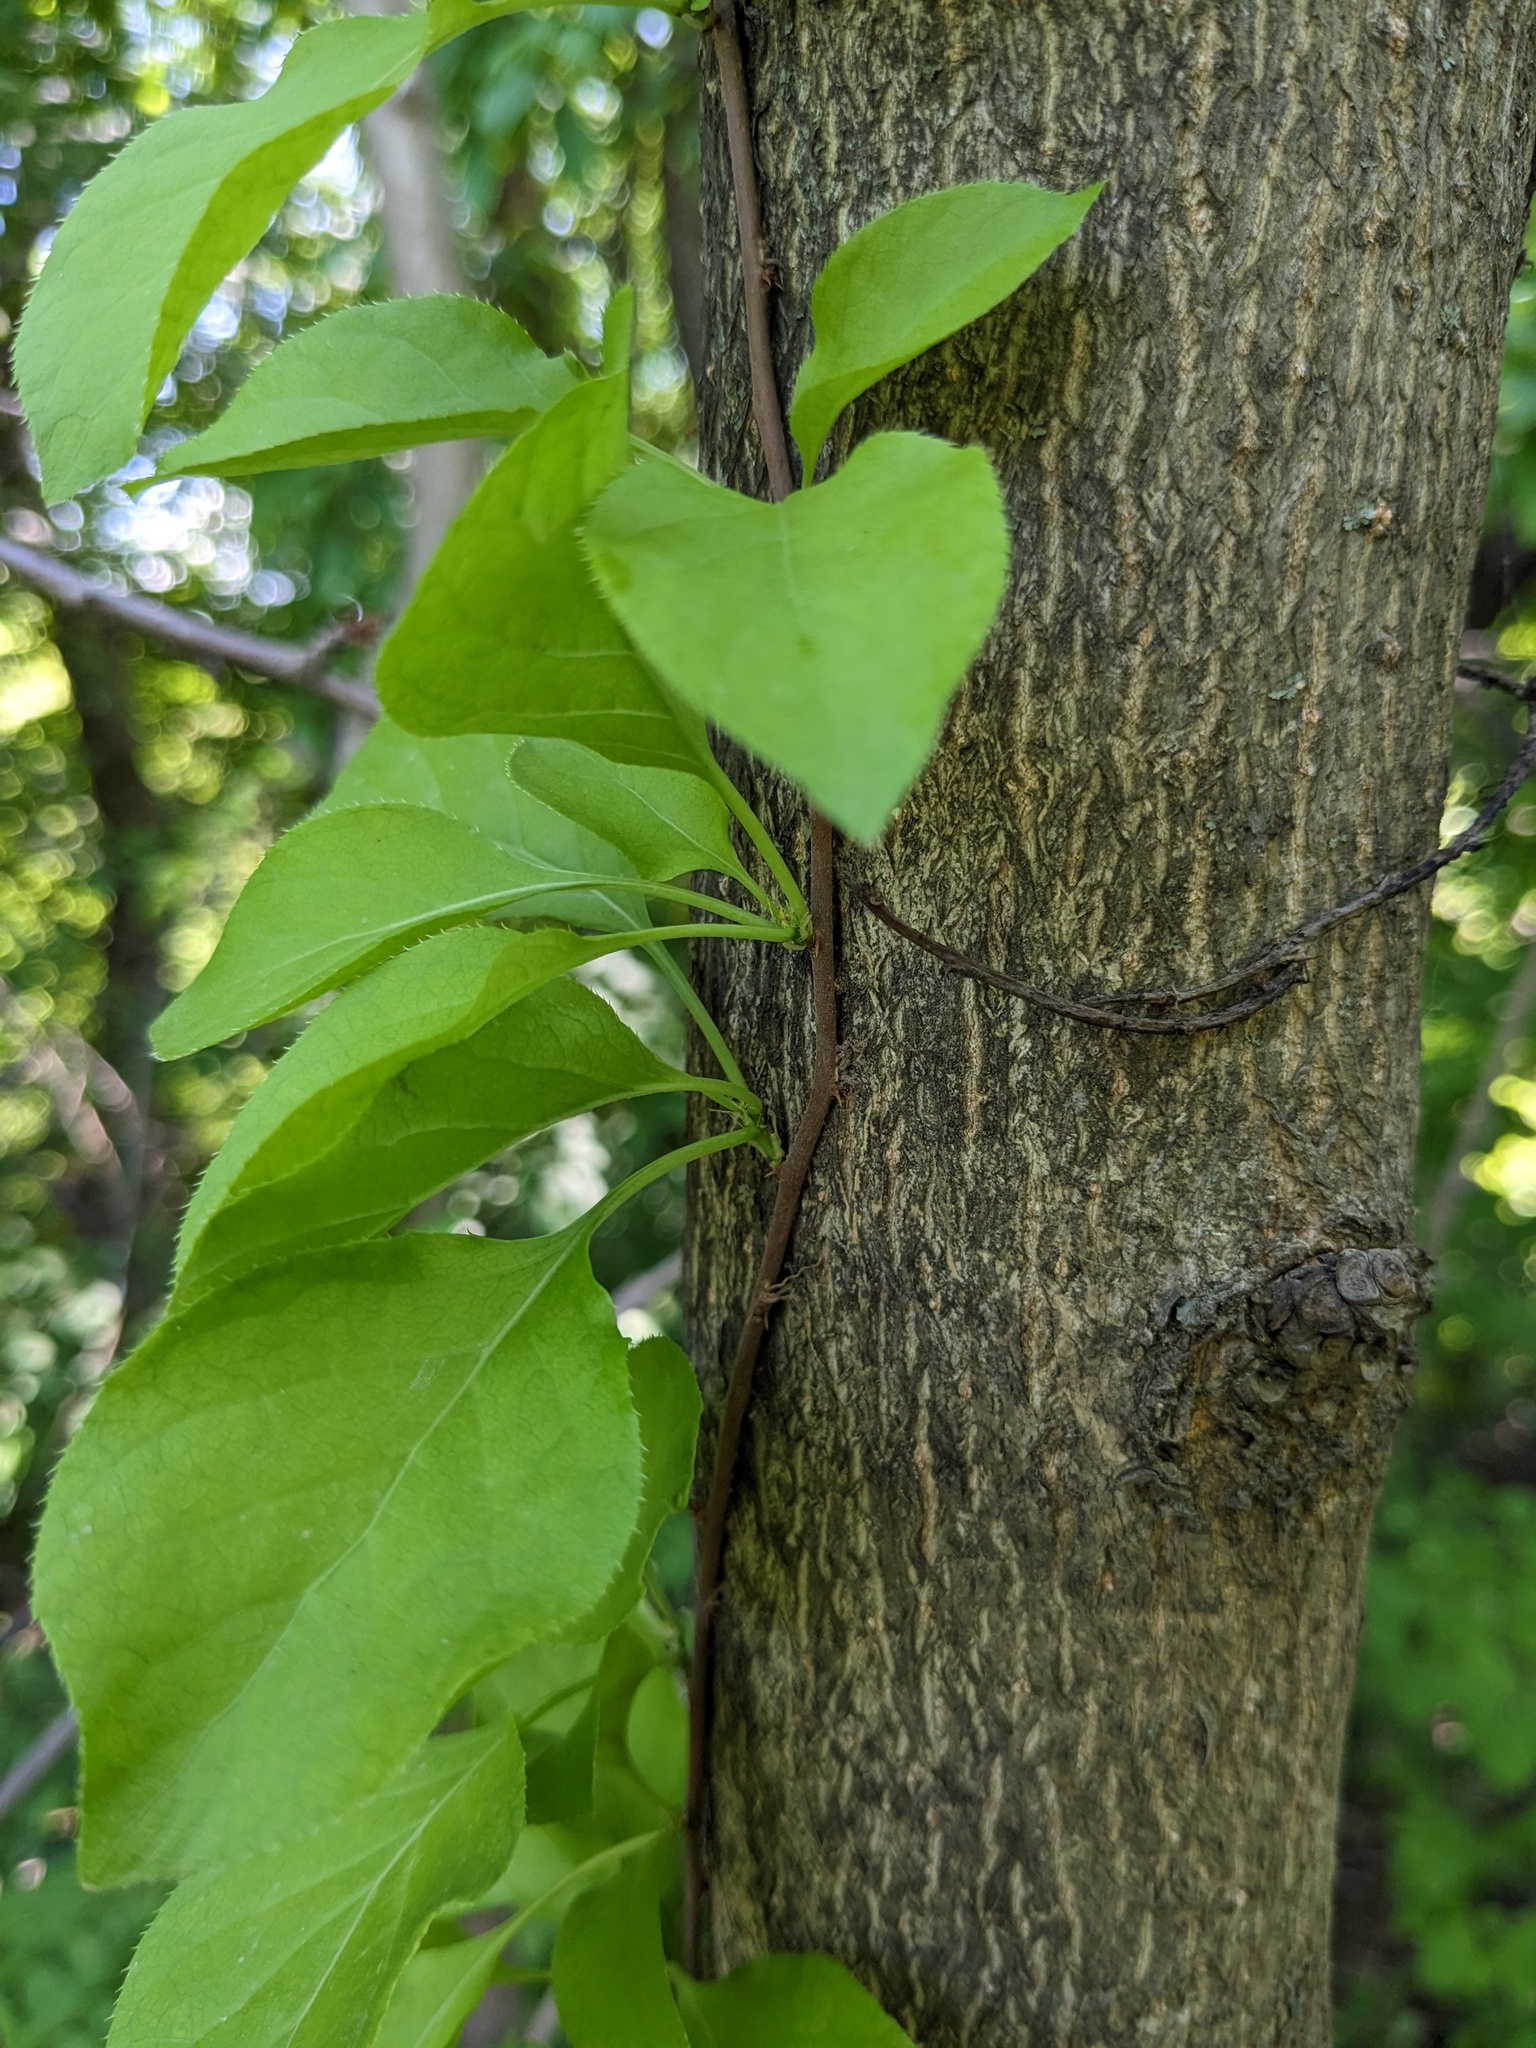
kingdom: Plantae
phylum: Tracheophyta
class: Magnoliopsida
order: Celastrales
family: Celastraceae
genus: Celastrus
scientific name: Celastrus flagellaris
